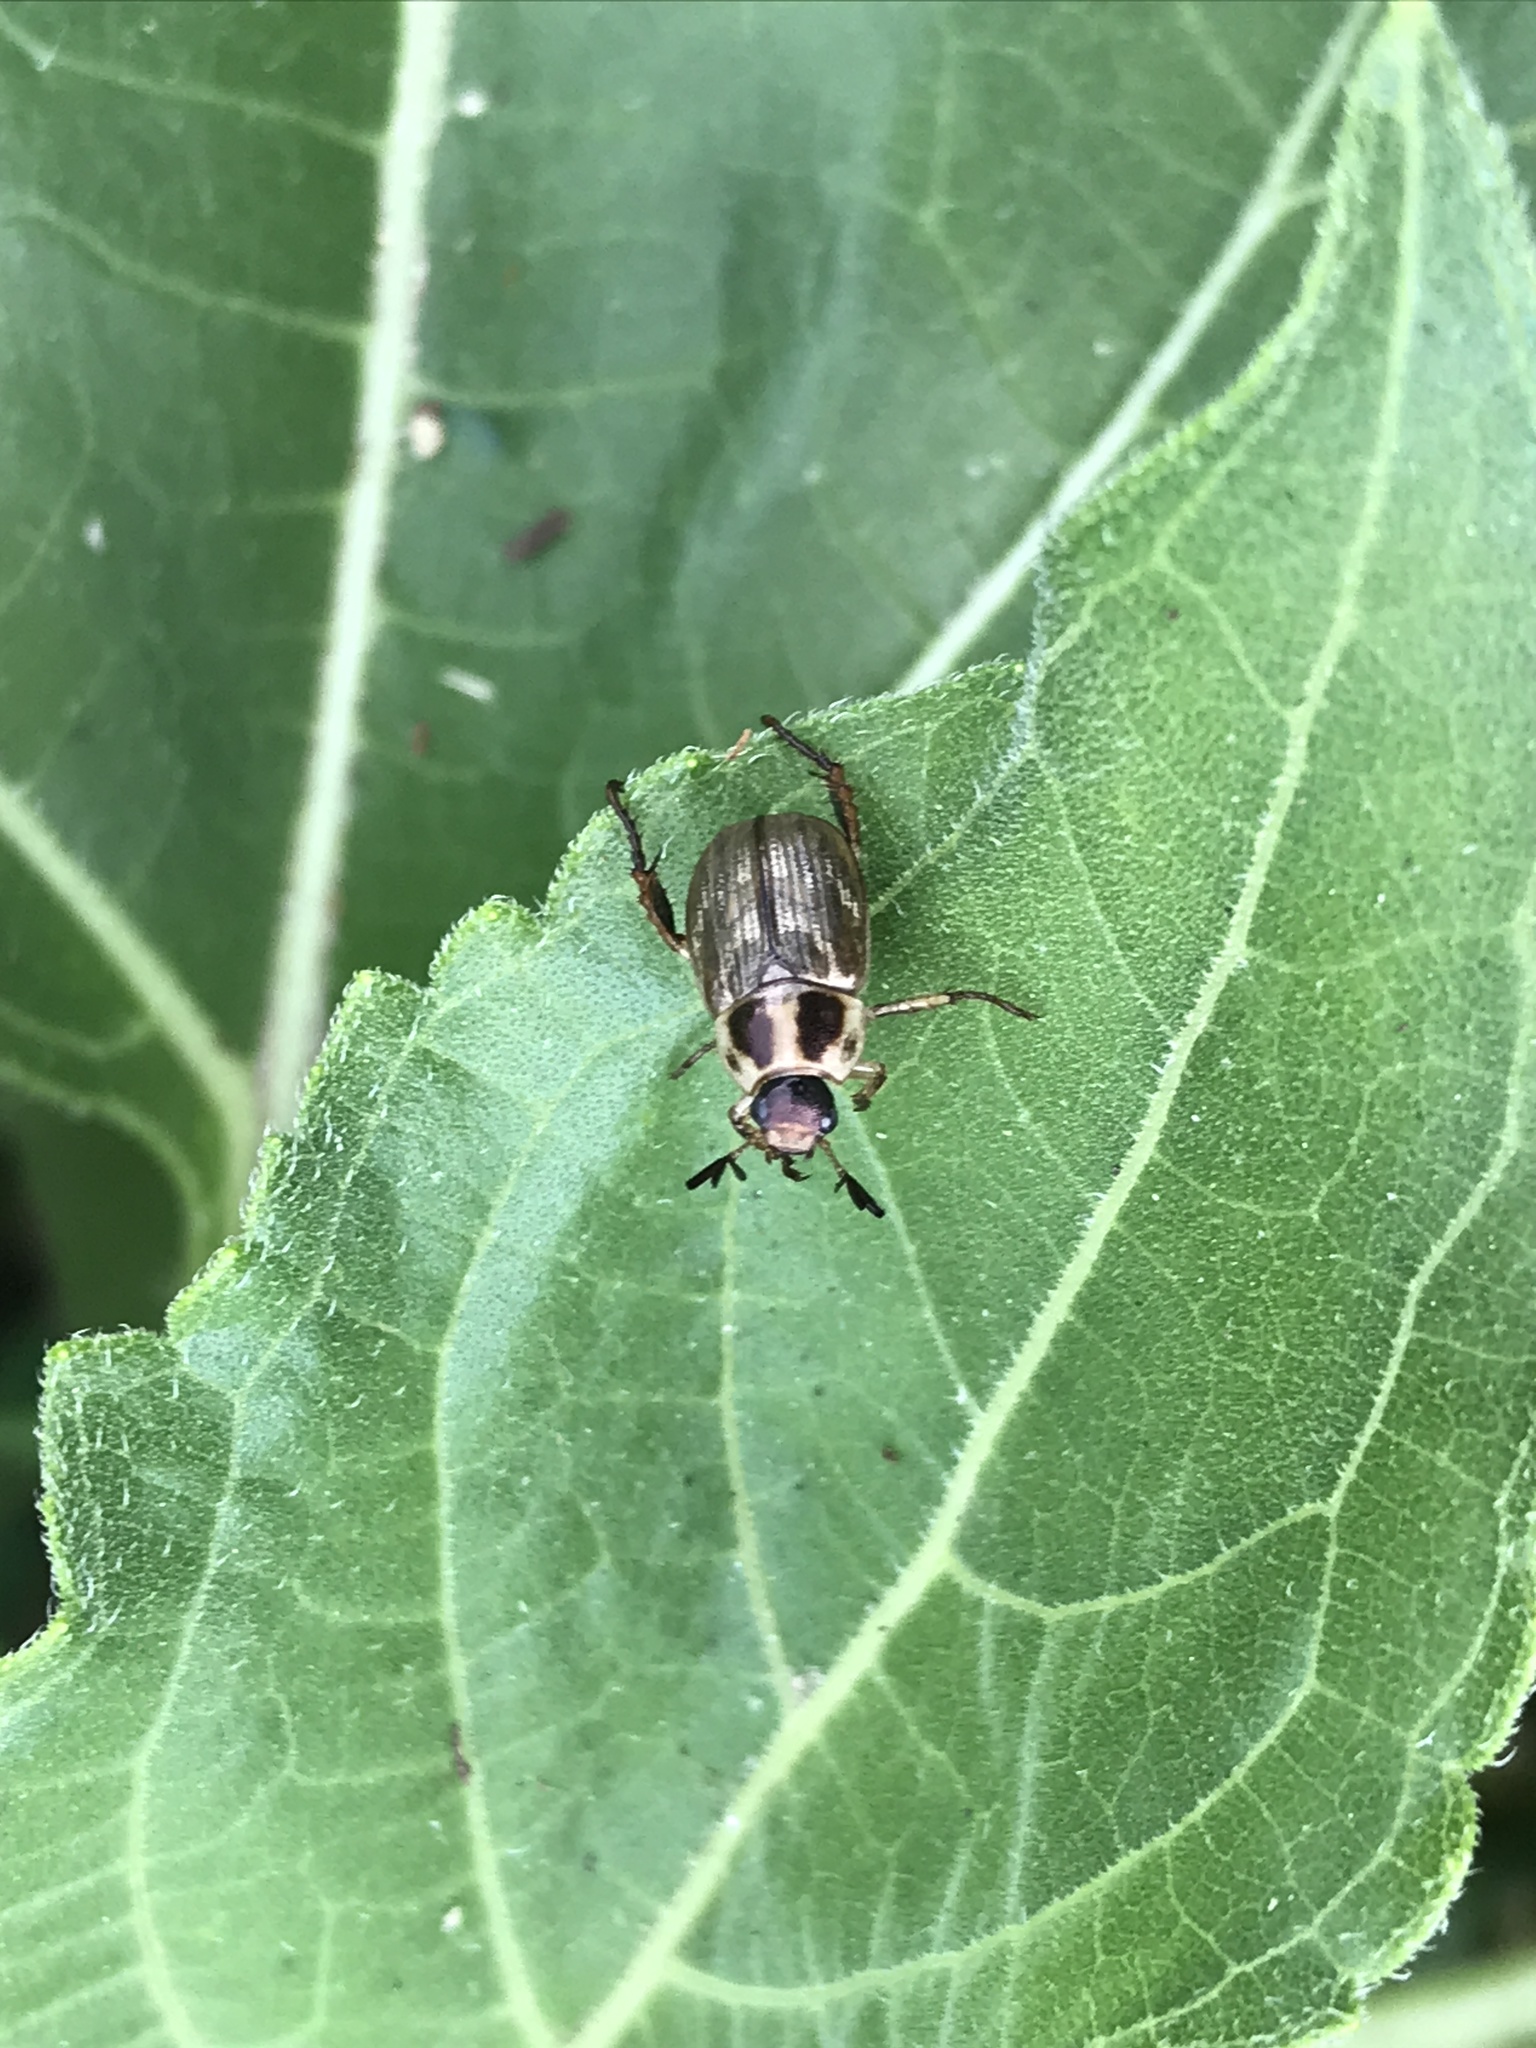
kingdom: Animalia
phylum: Arthropoda
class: Insecta
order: Coleoptera
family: Scarabaeidae
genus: Exomala
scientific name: Exomala orientalis
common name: Oriental beetle
